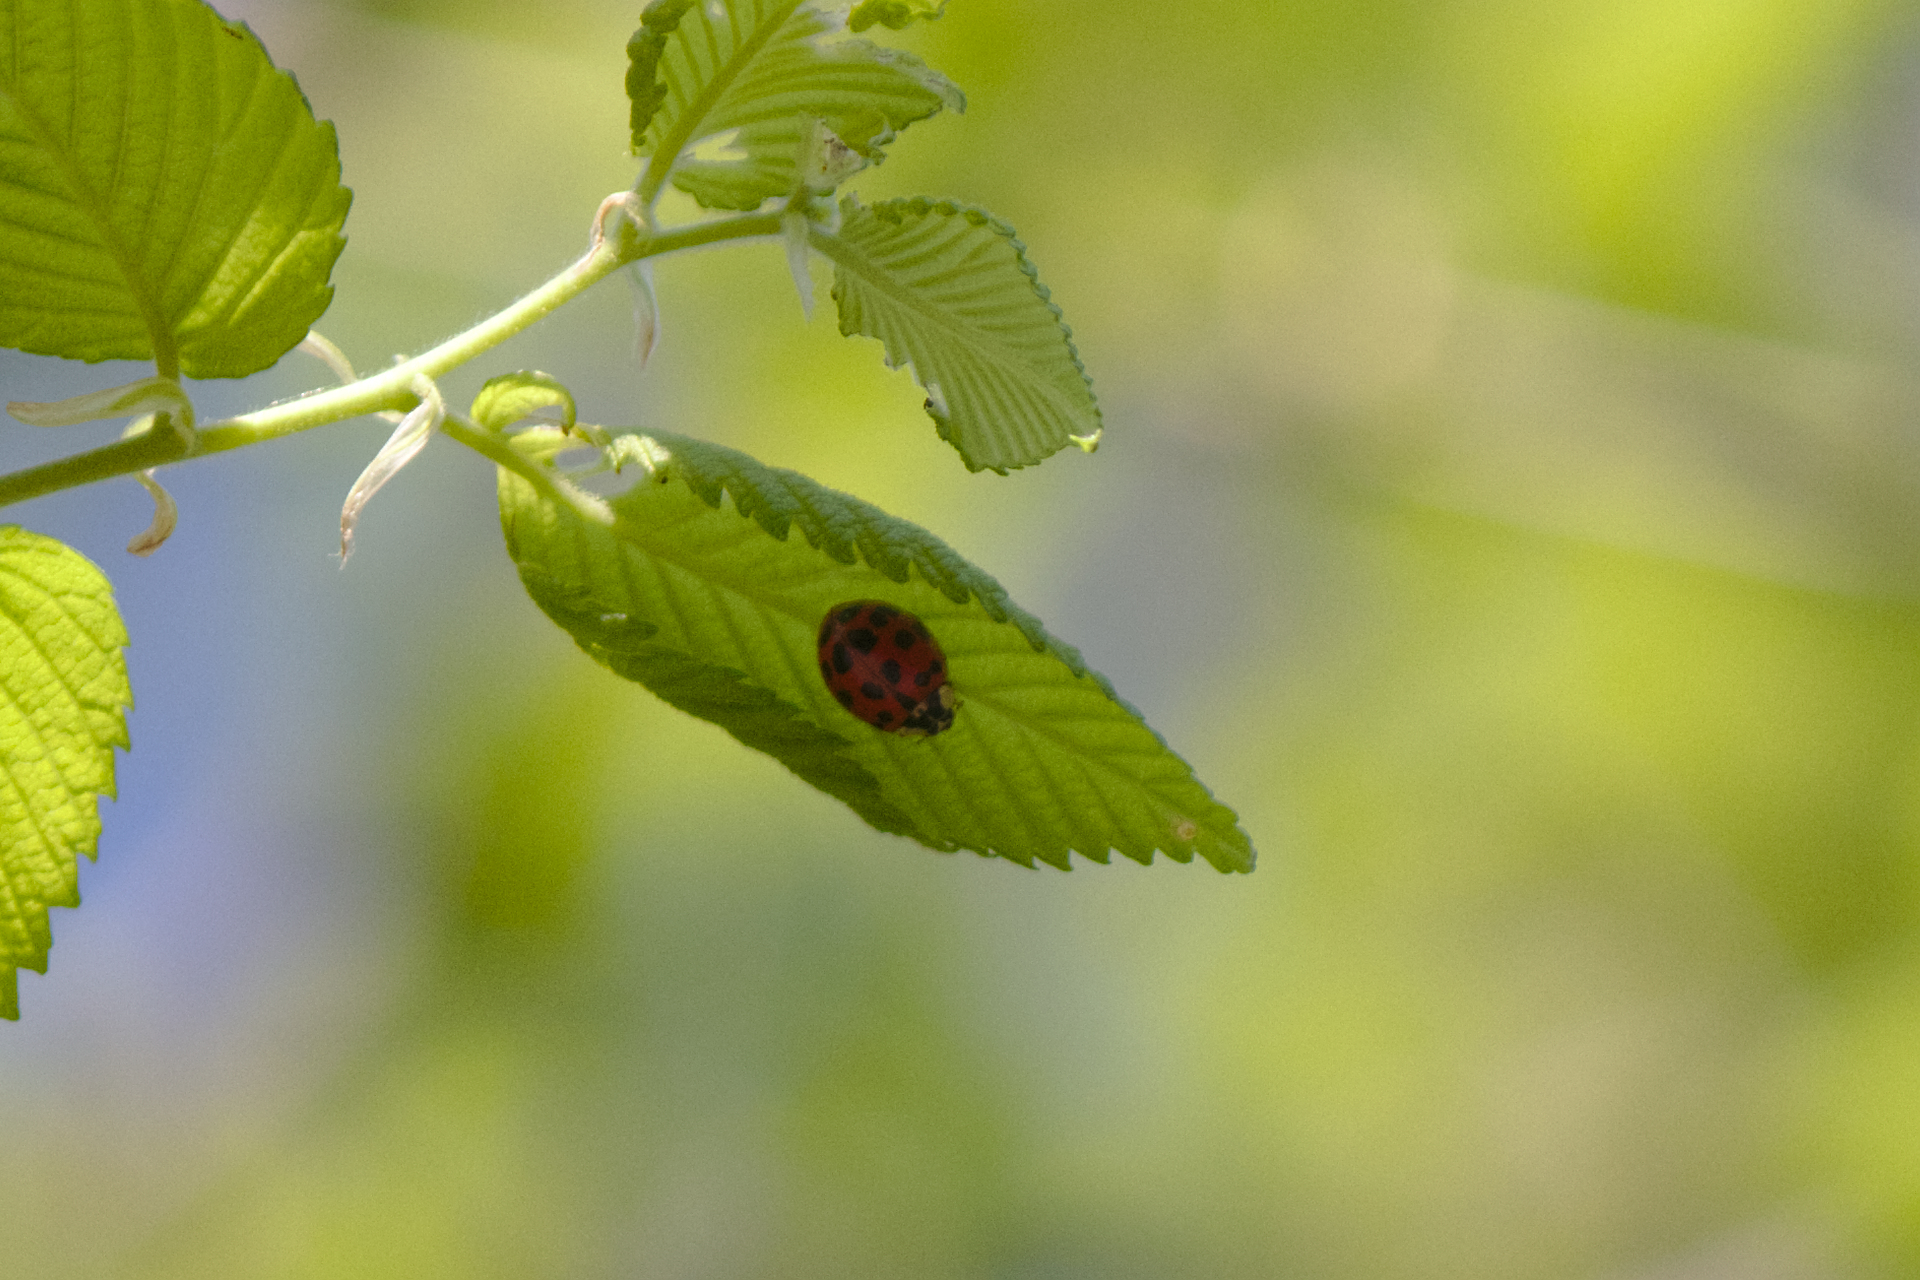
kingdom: Animalia
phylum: Arthropoda
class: Insecta
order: Coleoptera
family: Coccinellidae
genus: Harmonia
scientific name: Harmonia axyridis
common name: Harlequin ladybird
